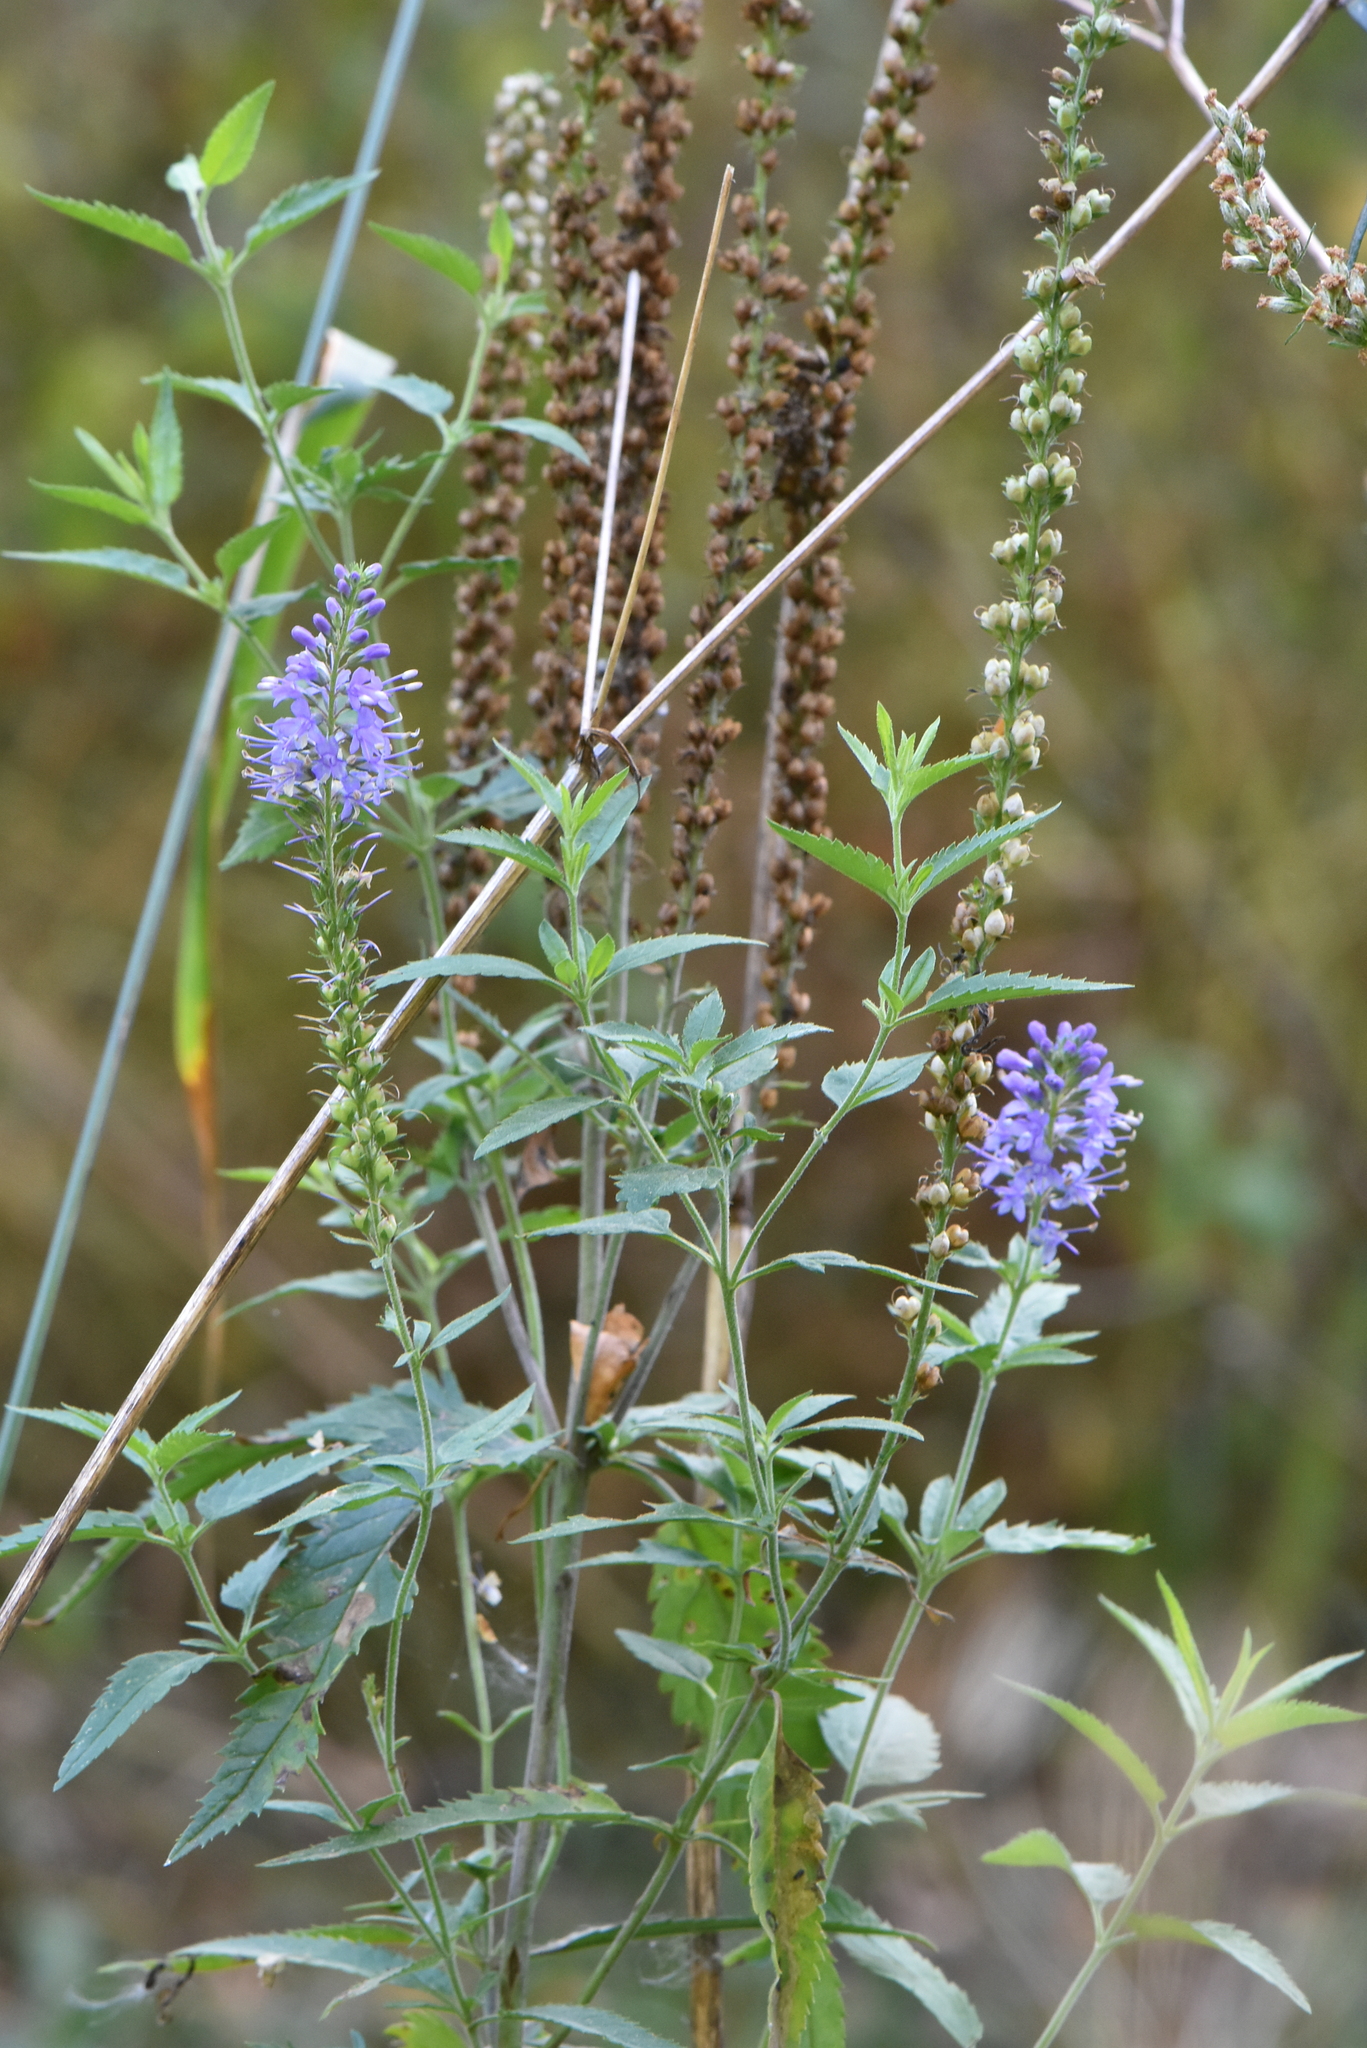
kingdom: Plantae
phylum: Tracheophyta
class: Magnoliopsida
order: Lamiales
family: Plantaginaceae
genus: Veronica
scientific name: Veronica longifolia
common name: Garden speedwell
